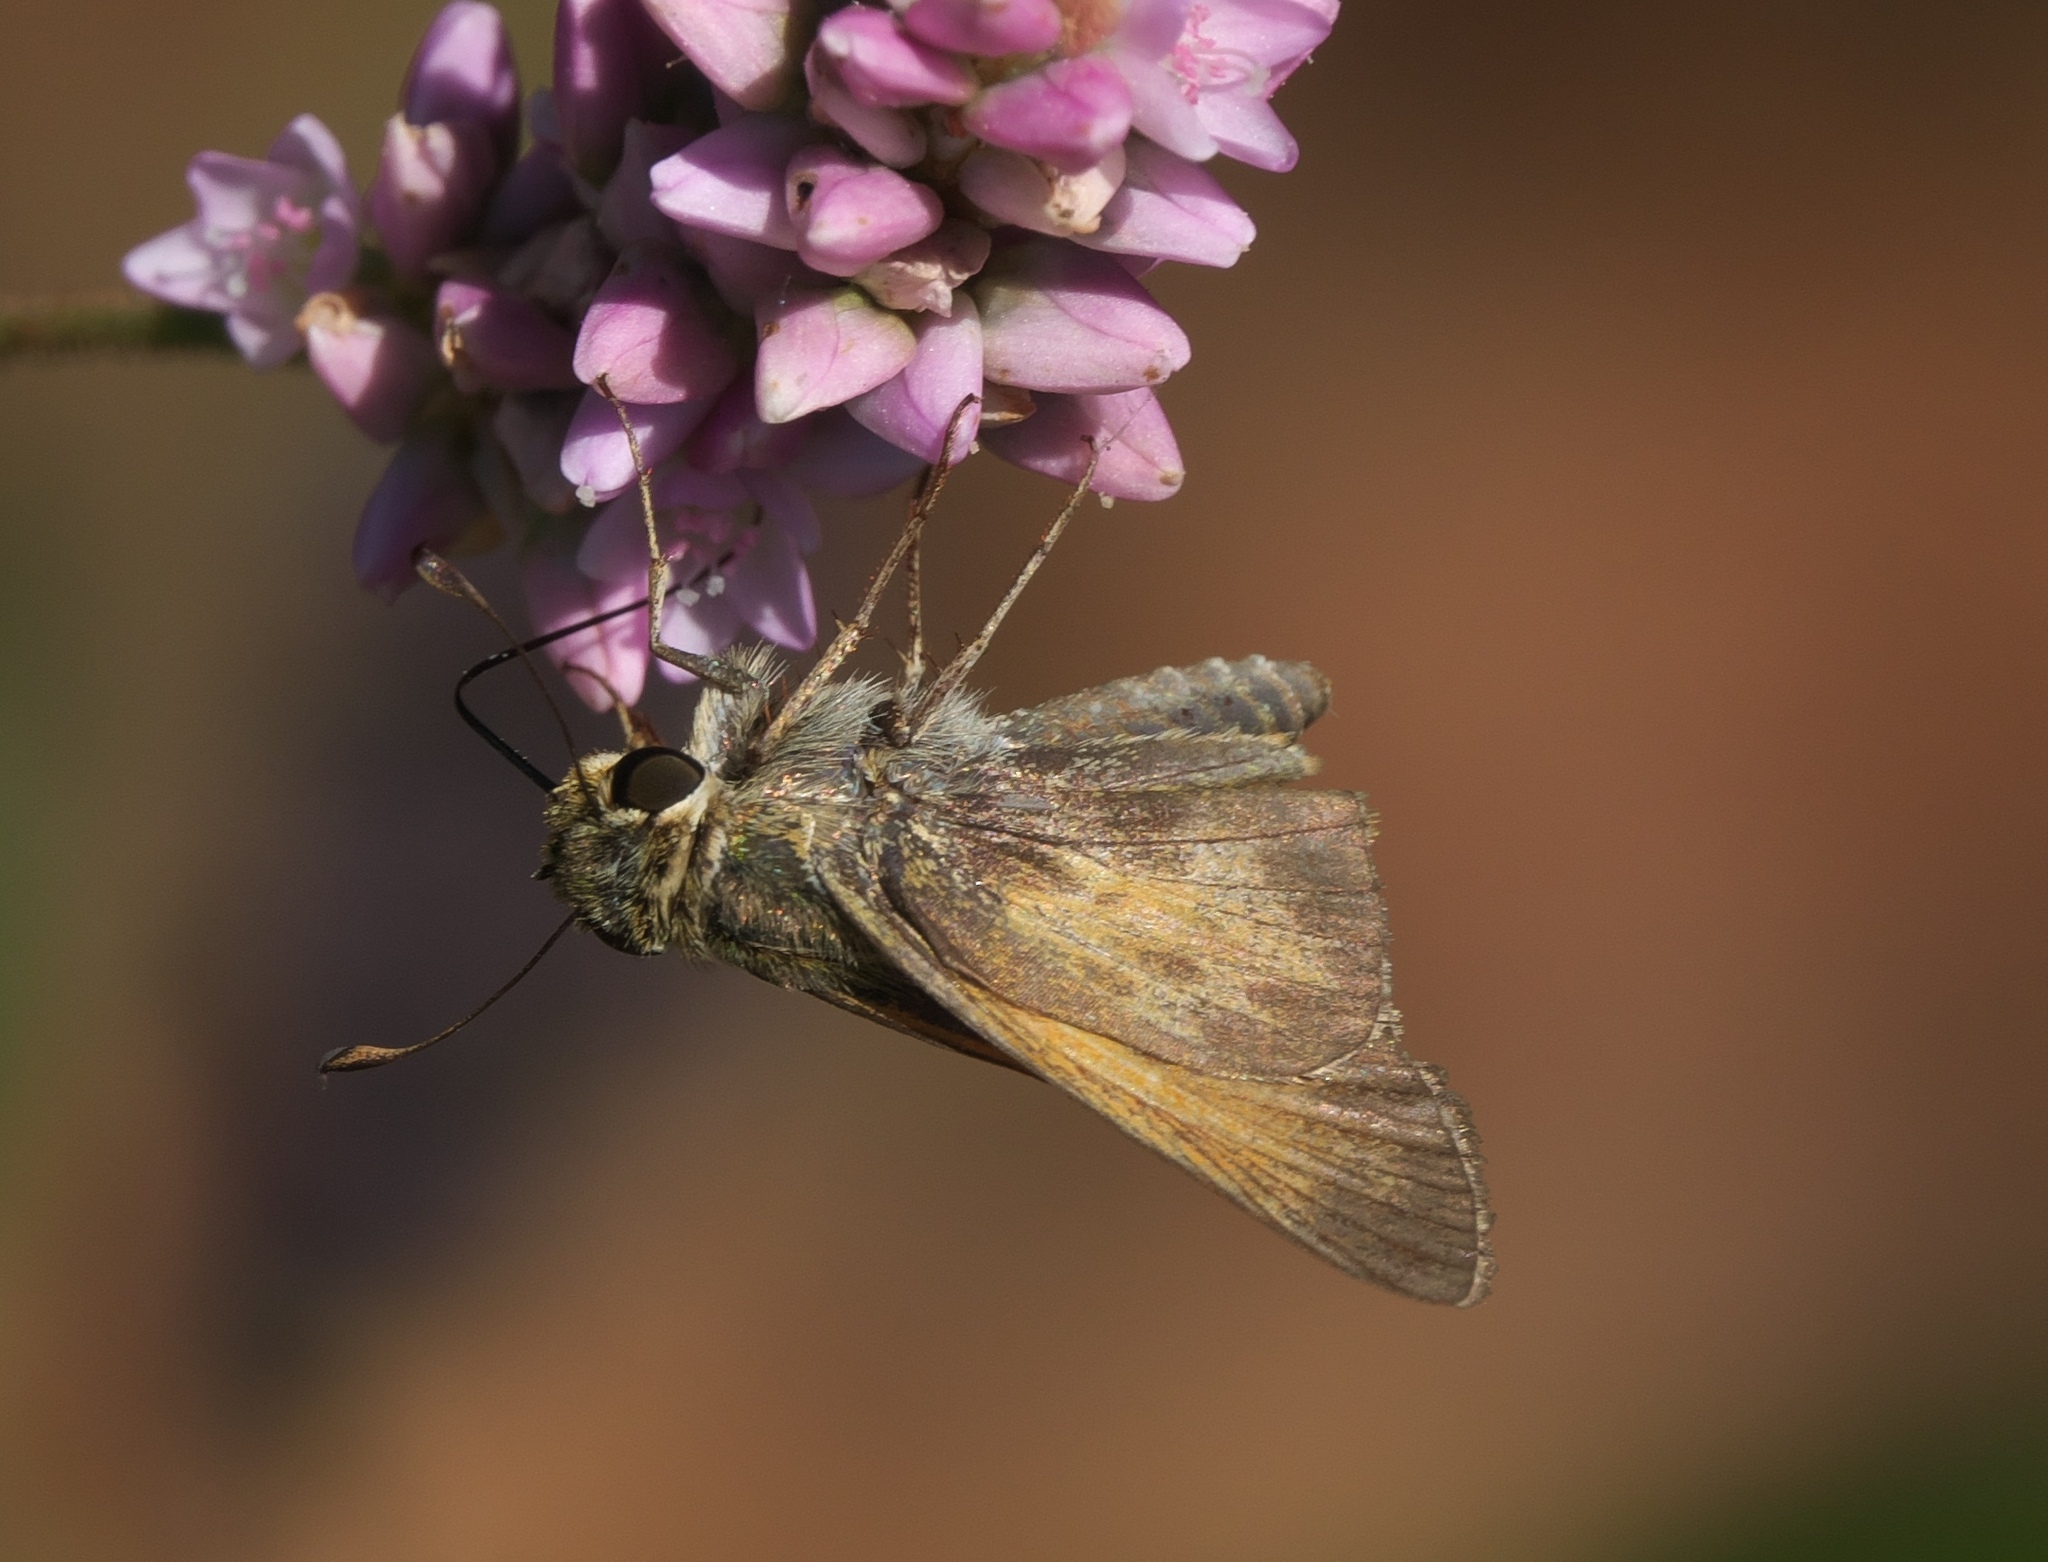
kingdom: Animalia
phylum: Arthropoda
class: Insecta
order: Lepidoptera
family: Hesperiidae
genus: Atalopedes
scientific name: Atalopedes
